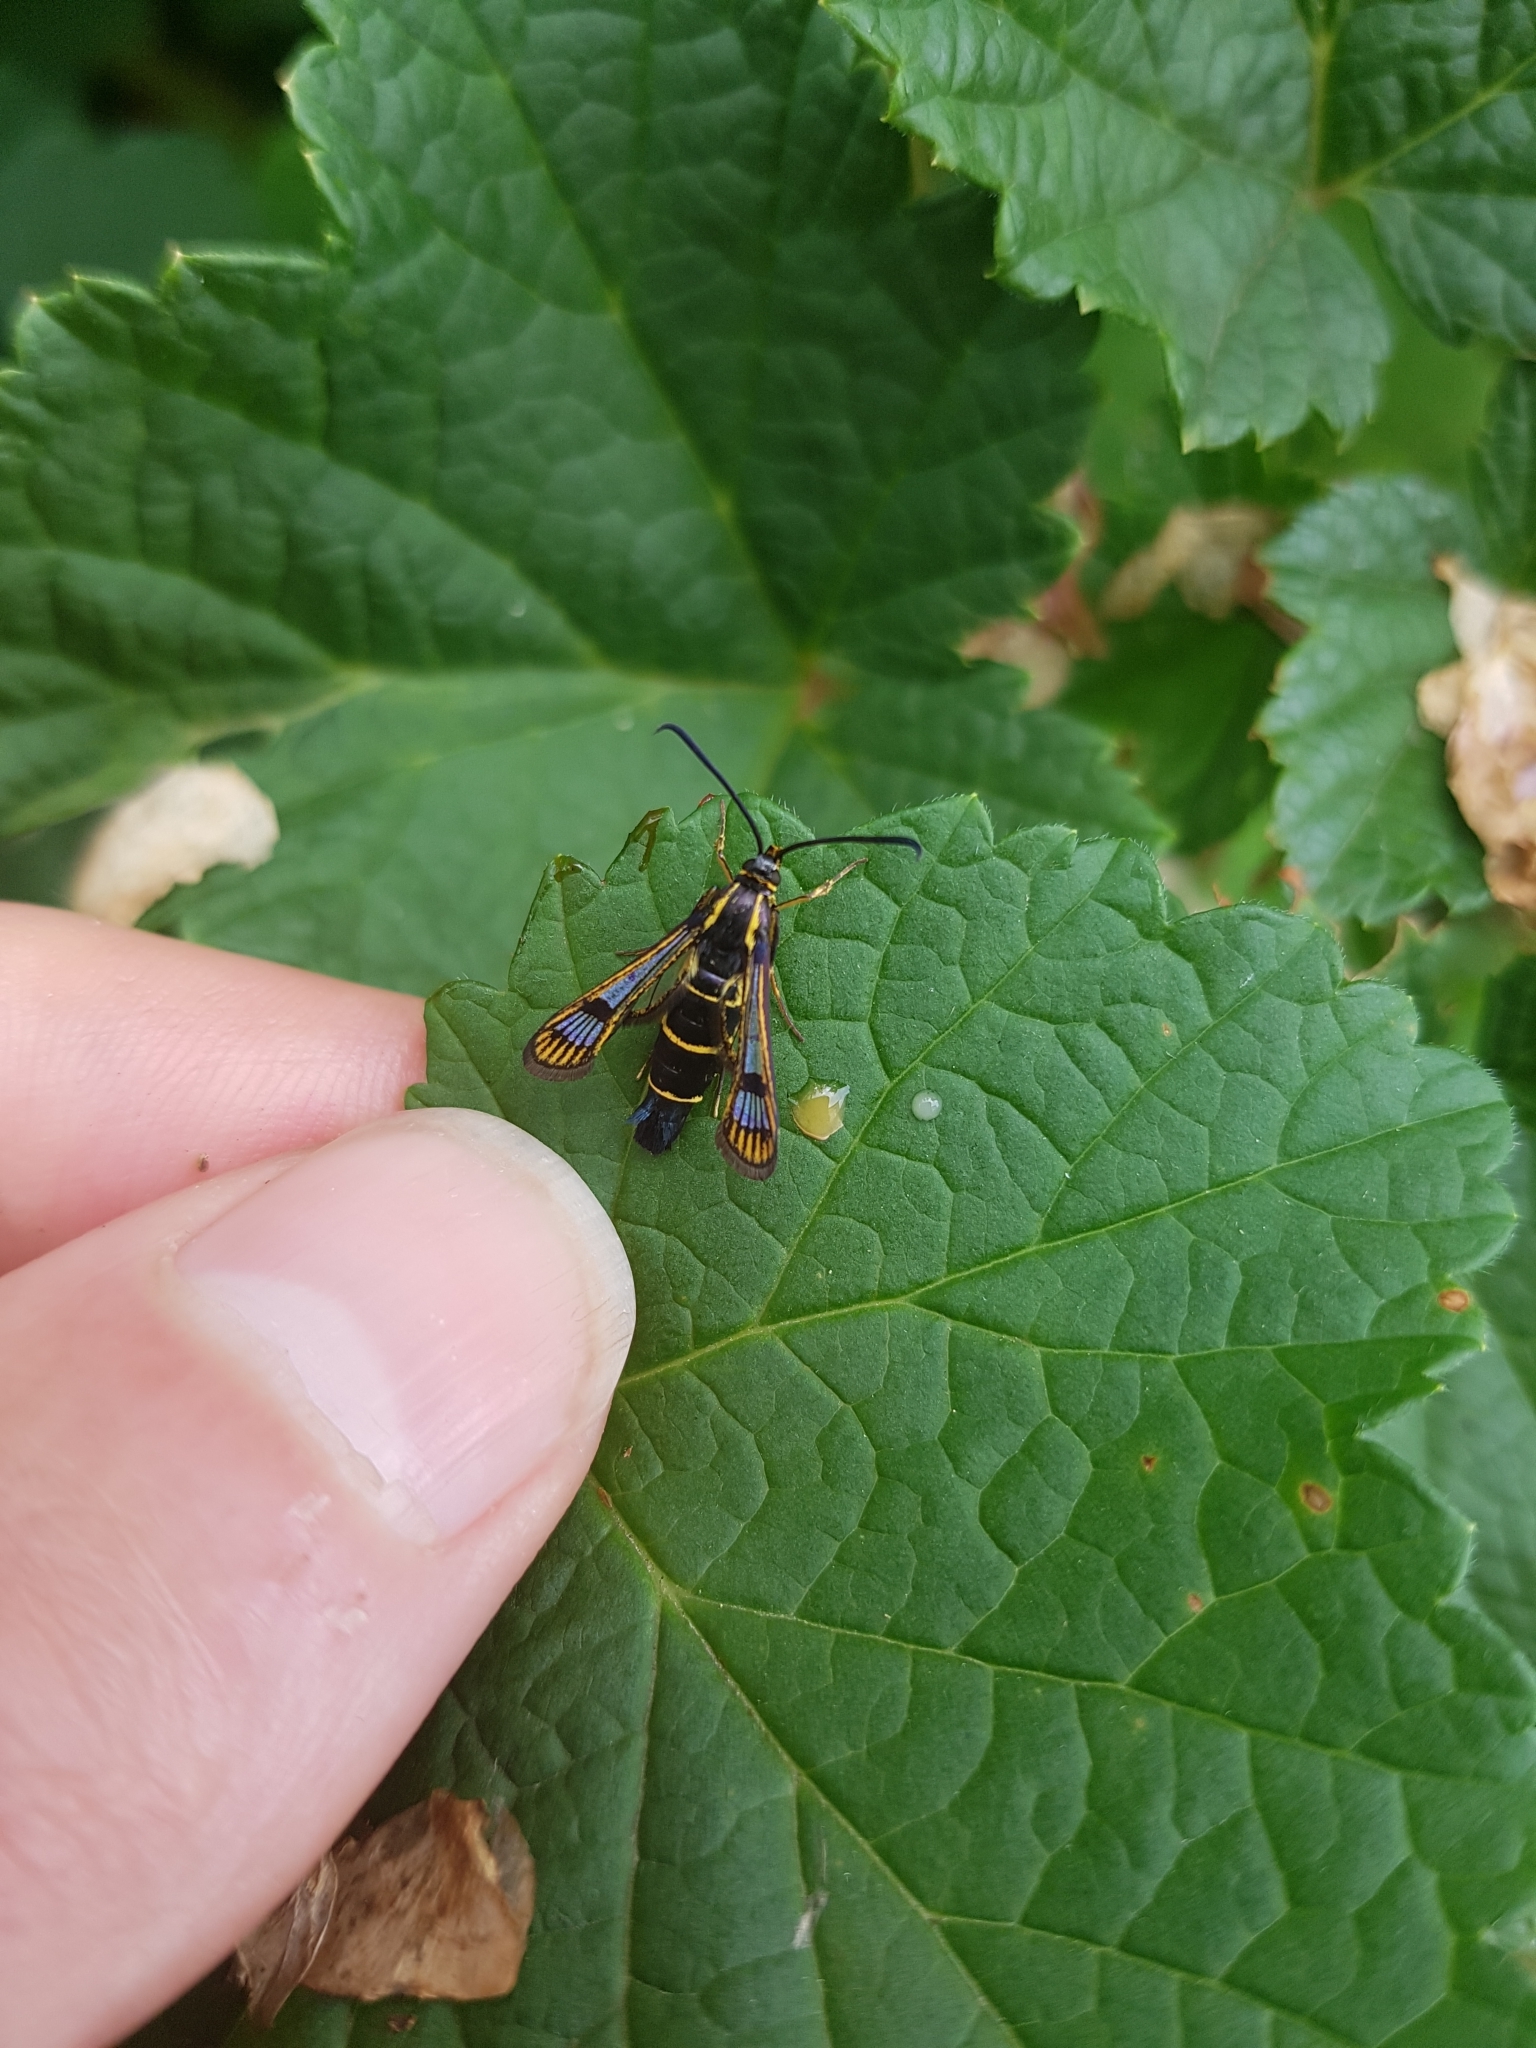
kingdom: Animalia
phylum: Arthropoda
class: Insecta
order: Lepidoptera
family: Sesiidae
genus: Synanthedon
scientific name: Synanthedon tipuliformis
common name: Currant clearwing
